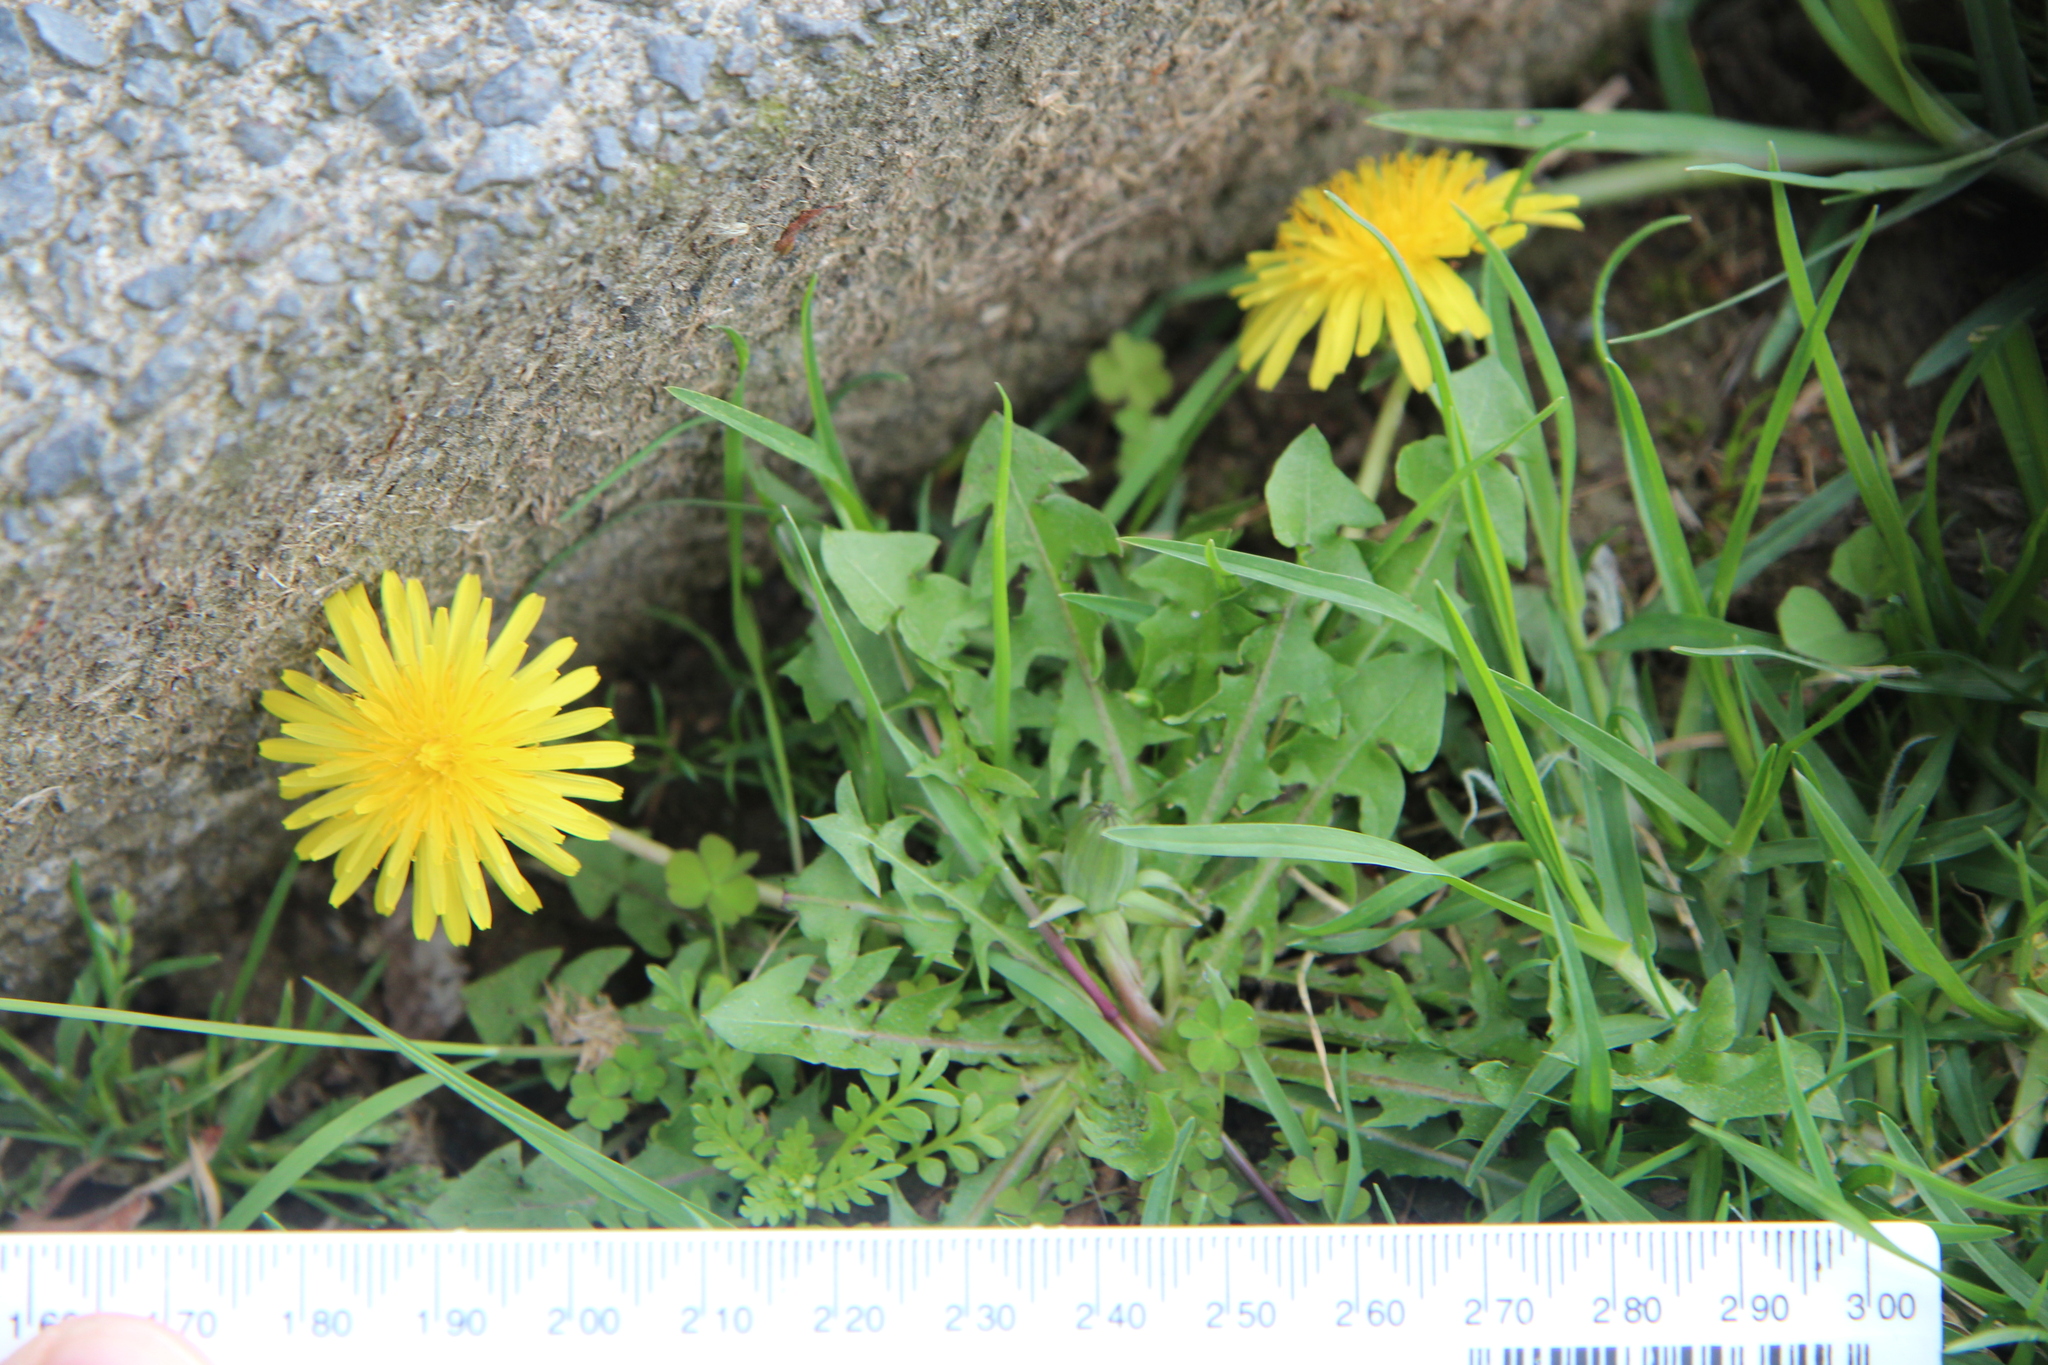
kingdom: Plantae
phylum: Tracheophyta
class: Magnoliopsida
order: Asterales
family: Asteraceae
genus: Taraxacum
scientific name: Taraxacum officinale
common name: Common dandelion
